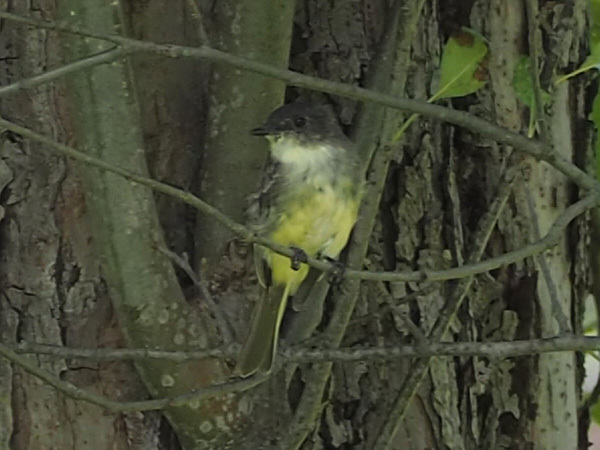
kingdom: Animalia
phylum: Chordata
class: Aves
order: Passeriformes
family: Tyrannidae
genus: Sayornis
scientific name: Sayornis phoebe
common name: Eastern phoebe
